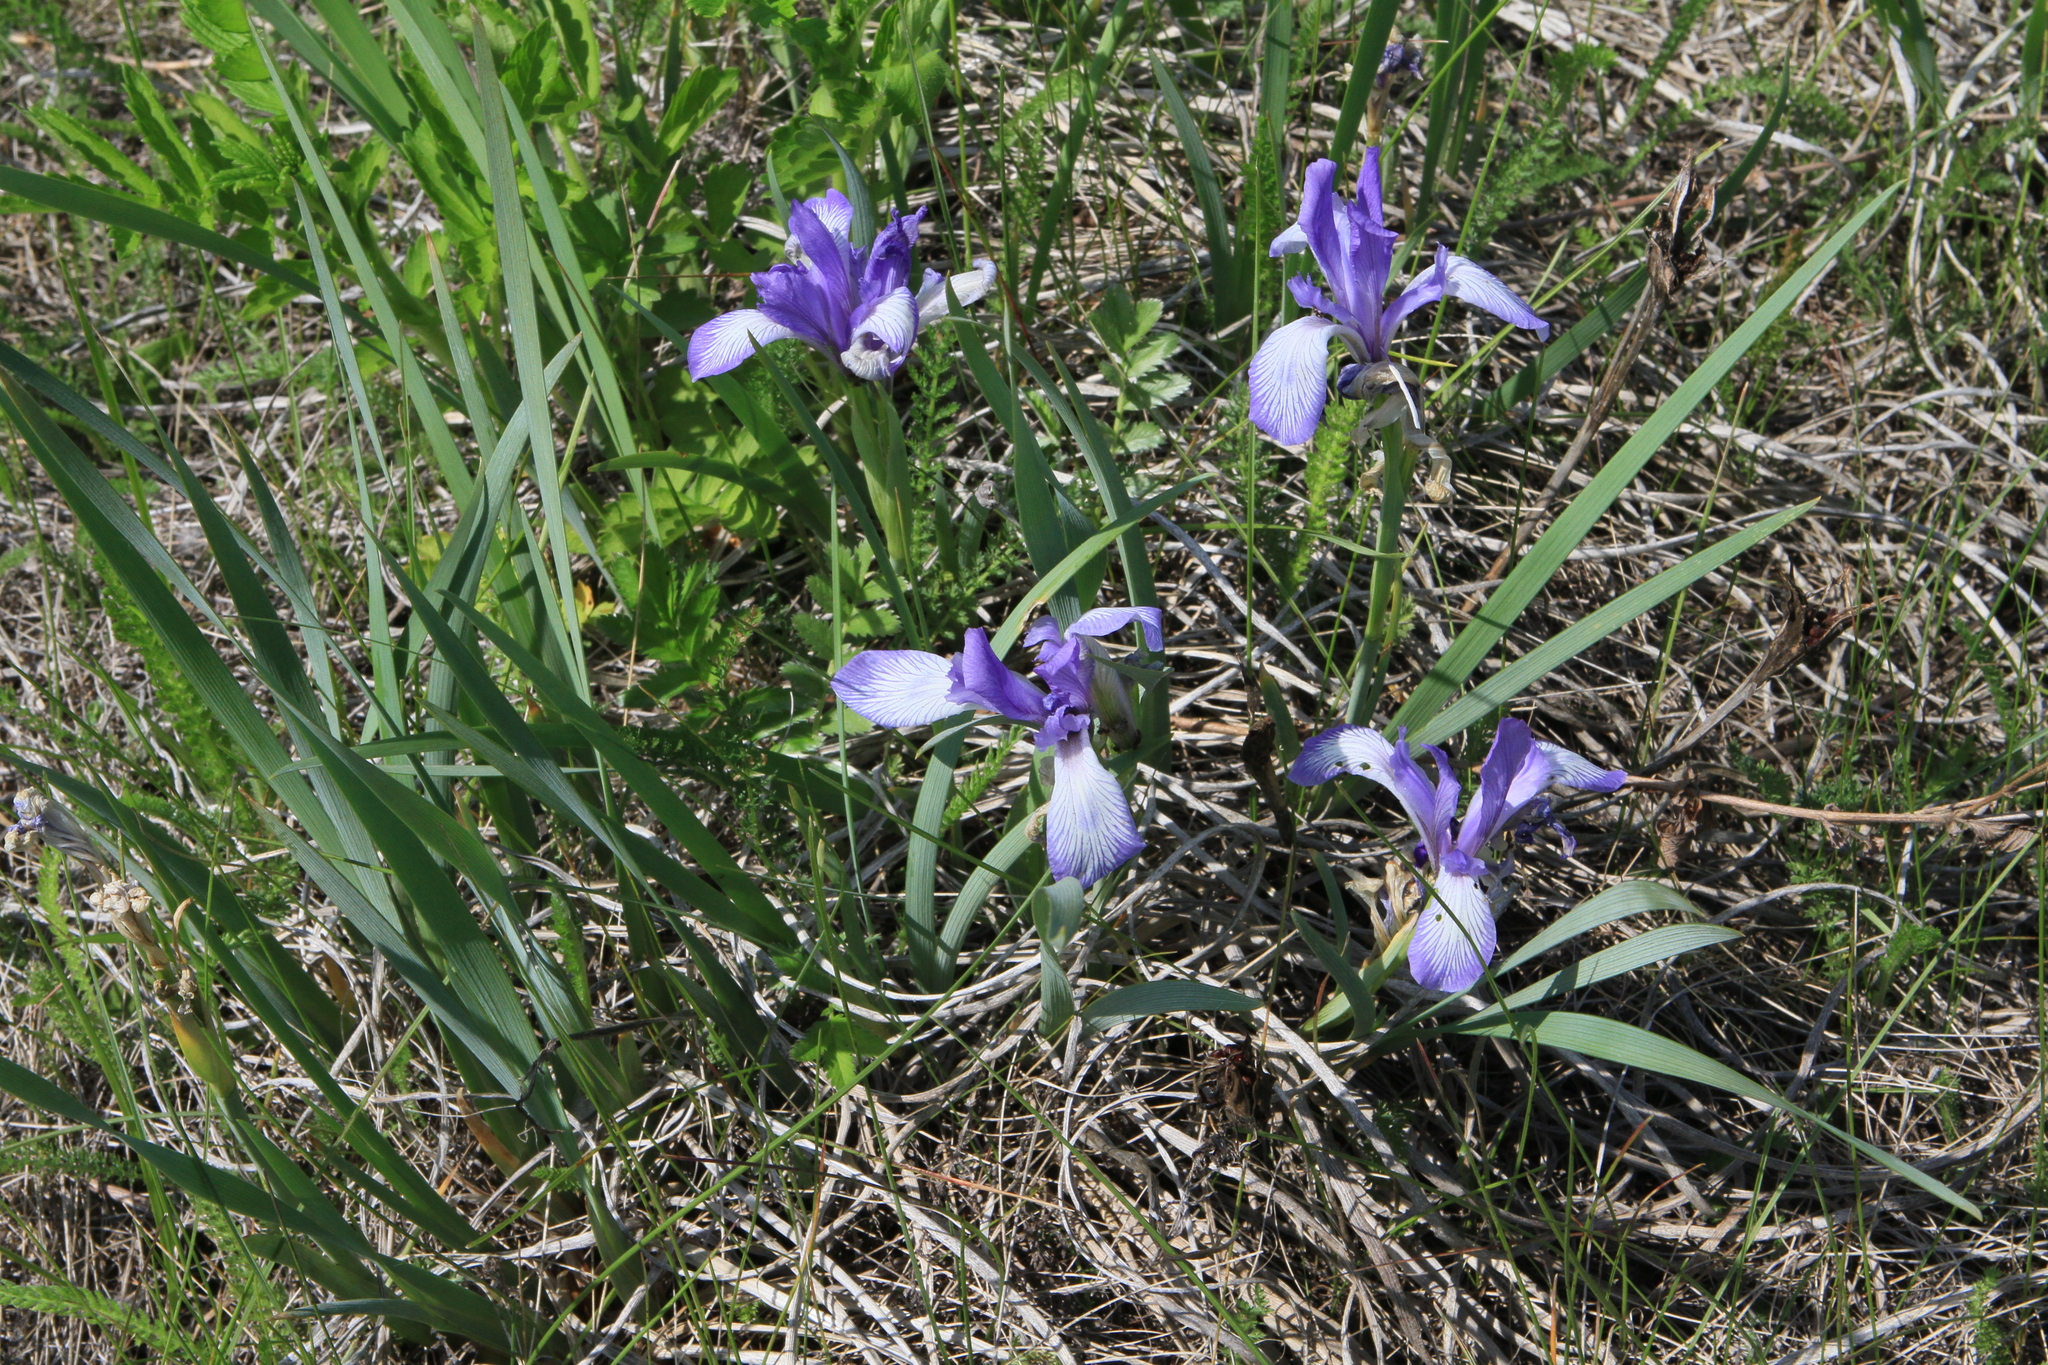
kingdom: Plantae
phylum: Tracheophyta
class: Liliopsida
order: Asparagales
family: Iridaceae
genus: Iris
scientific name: Iris lactea
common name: White-flower chinese iris
